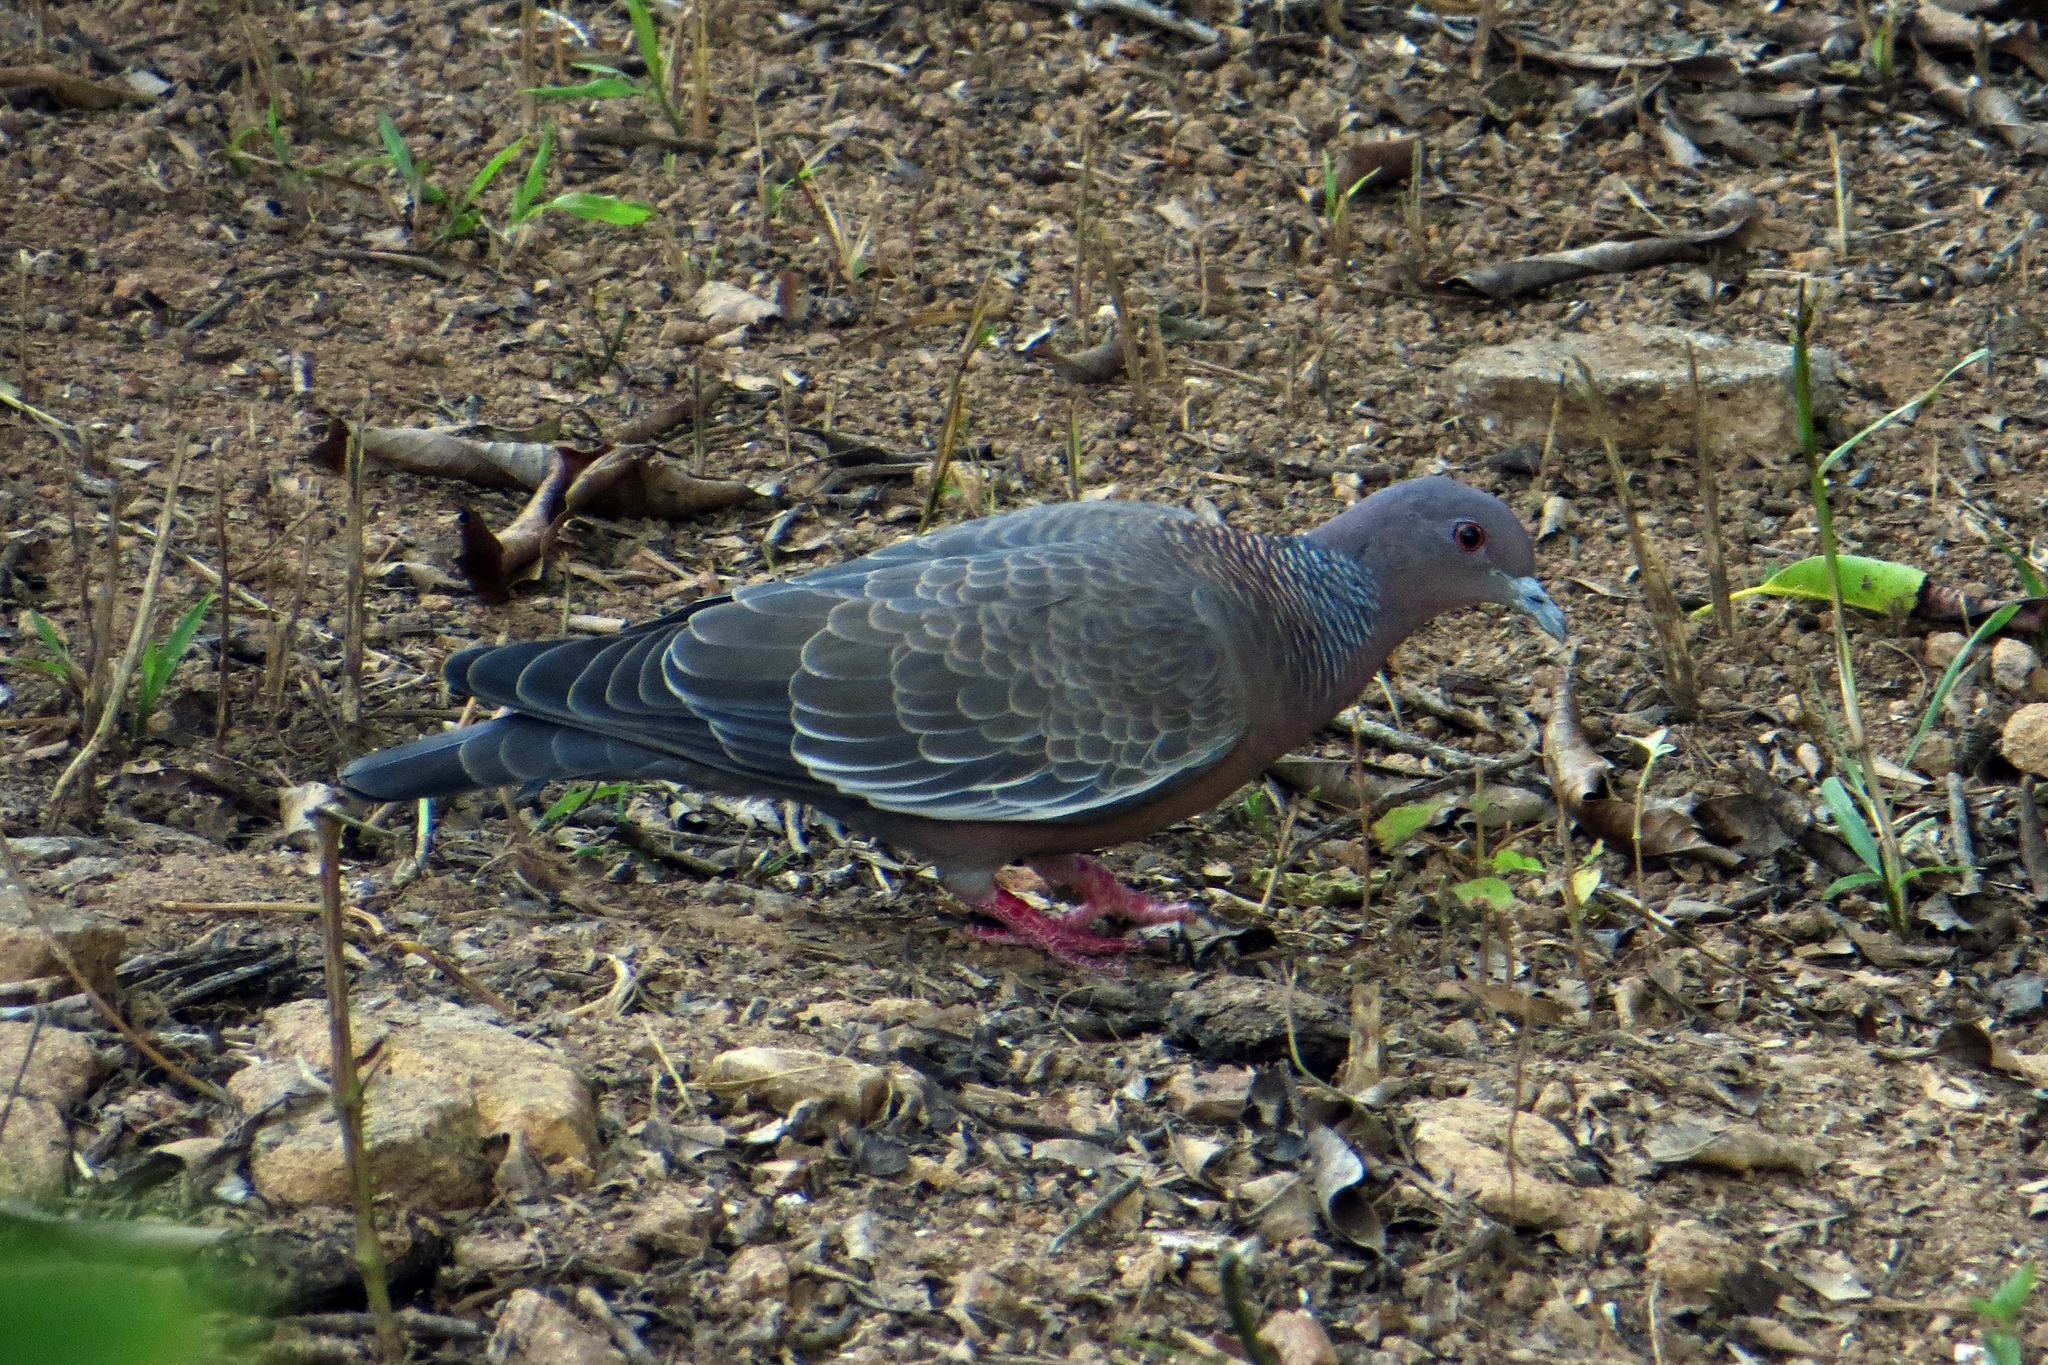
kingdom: Animalia
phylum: Chordata
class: Aves
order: Columbiformes
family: Columbidae
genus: Patagioenas
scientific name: Patagioenas picazuro
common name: Picazuro pigeon
